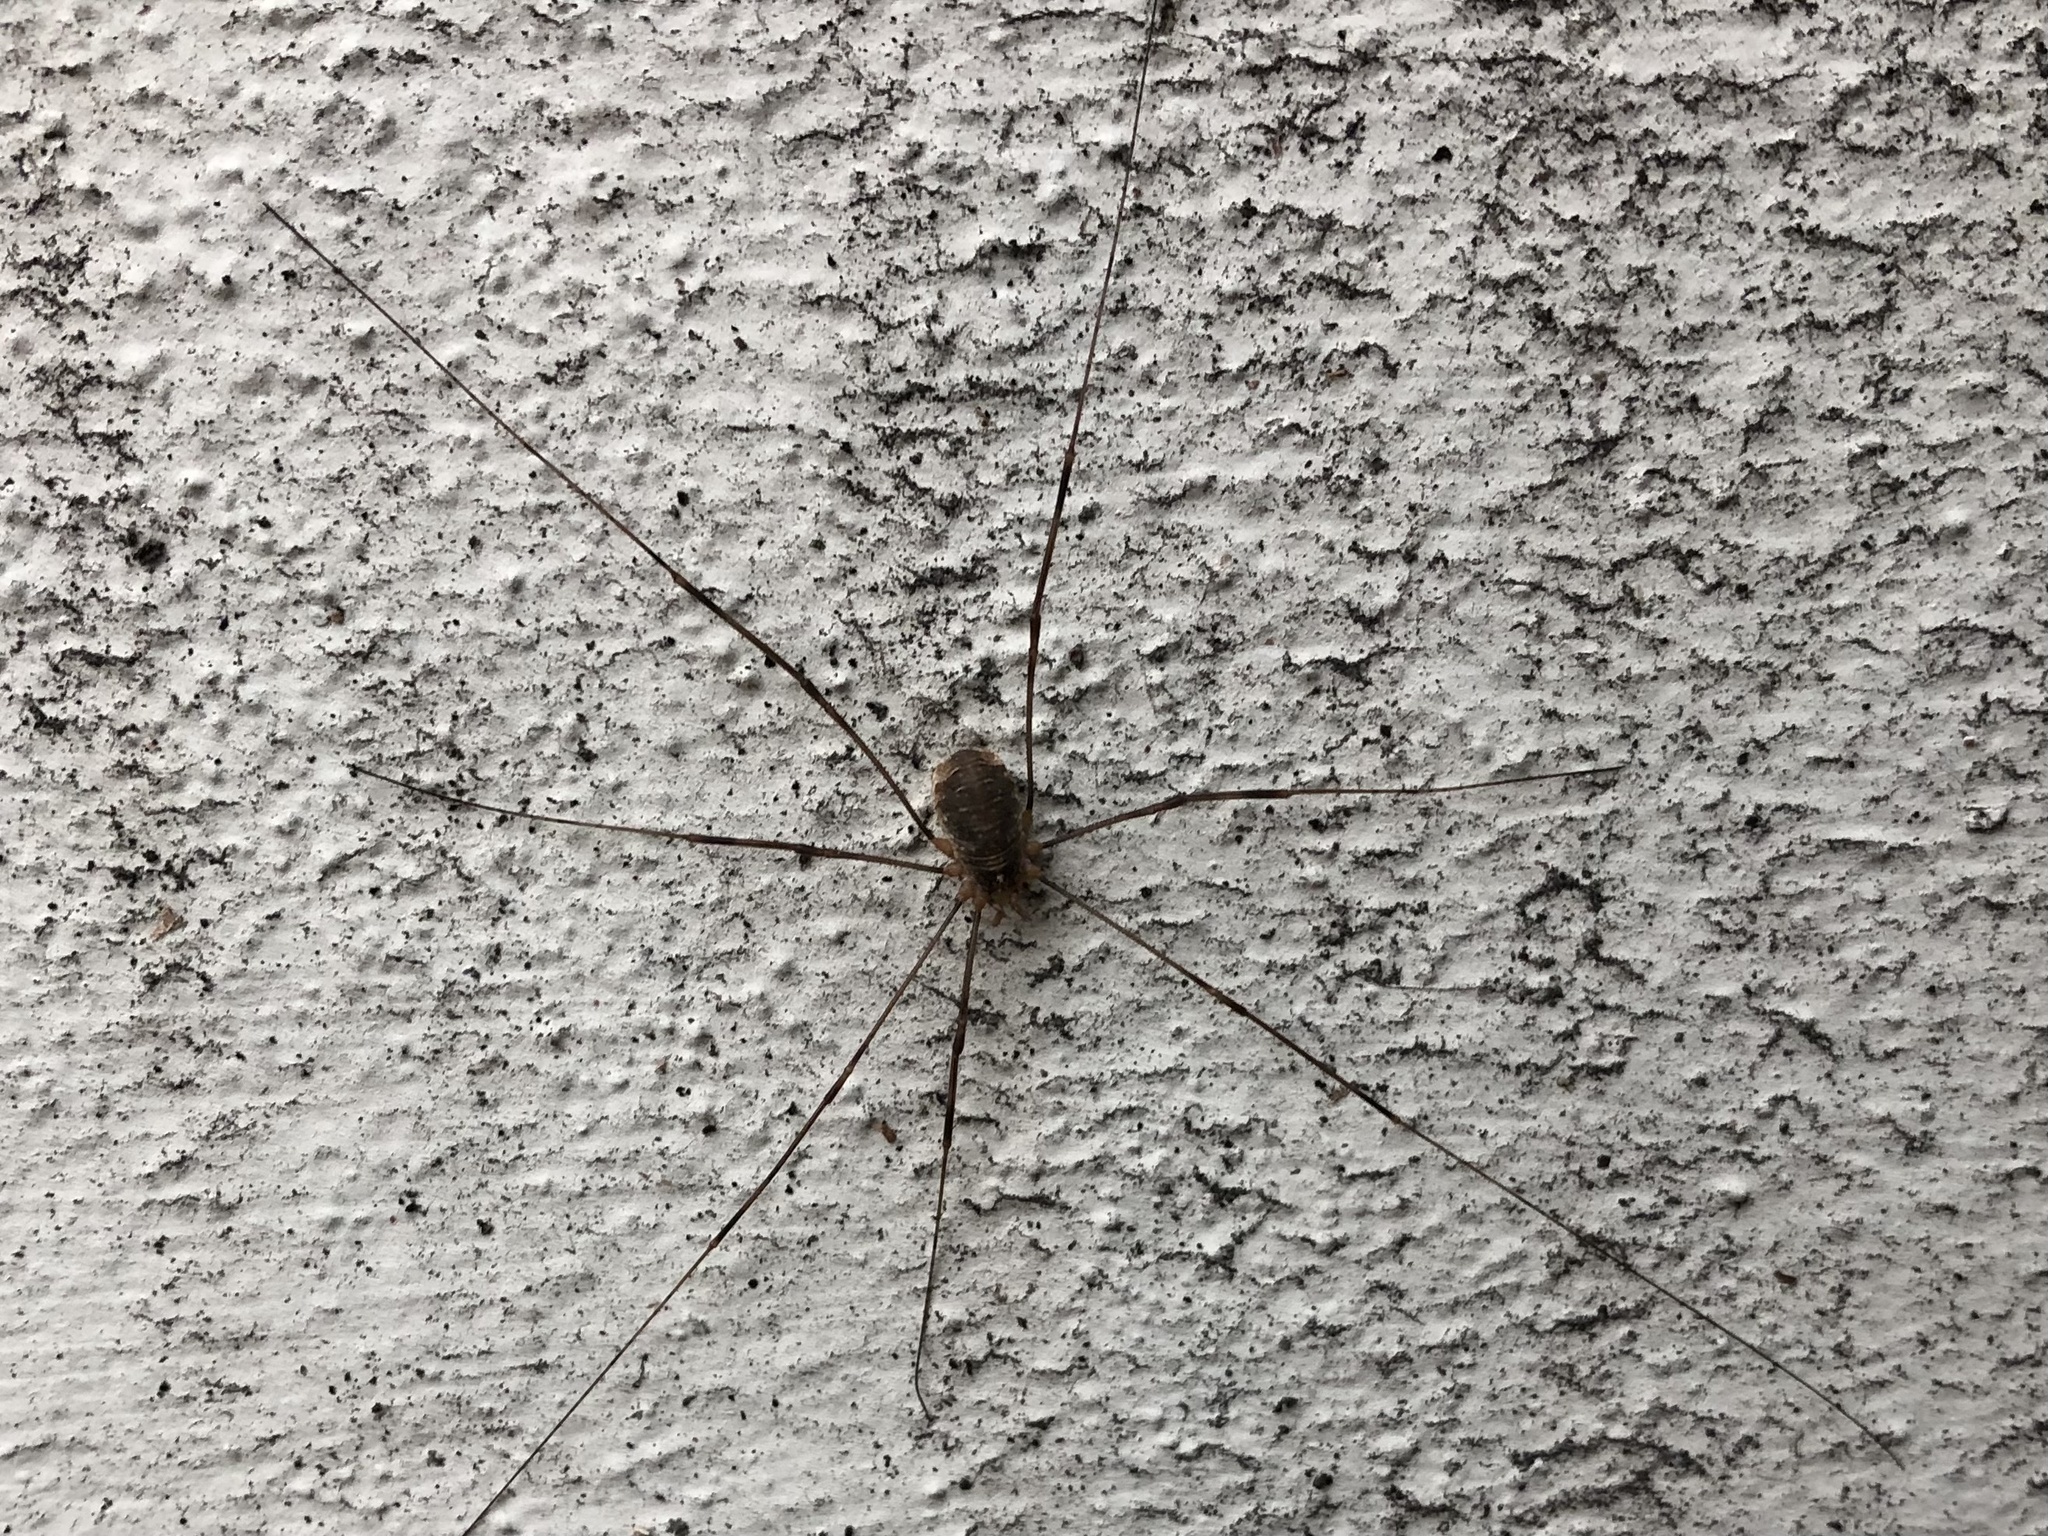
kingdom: Animalia
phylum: Arthropoda
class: Arachnida
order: Opiliones
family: Phalangiidae
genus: Opilio
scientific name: Opilio canestrinii
